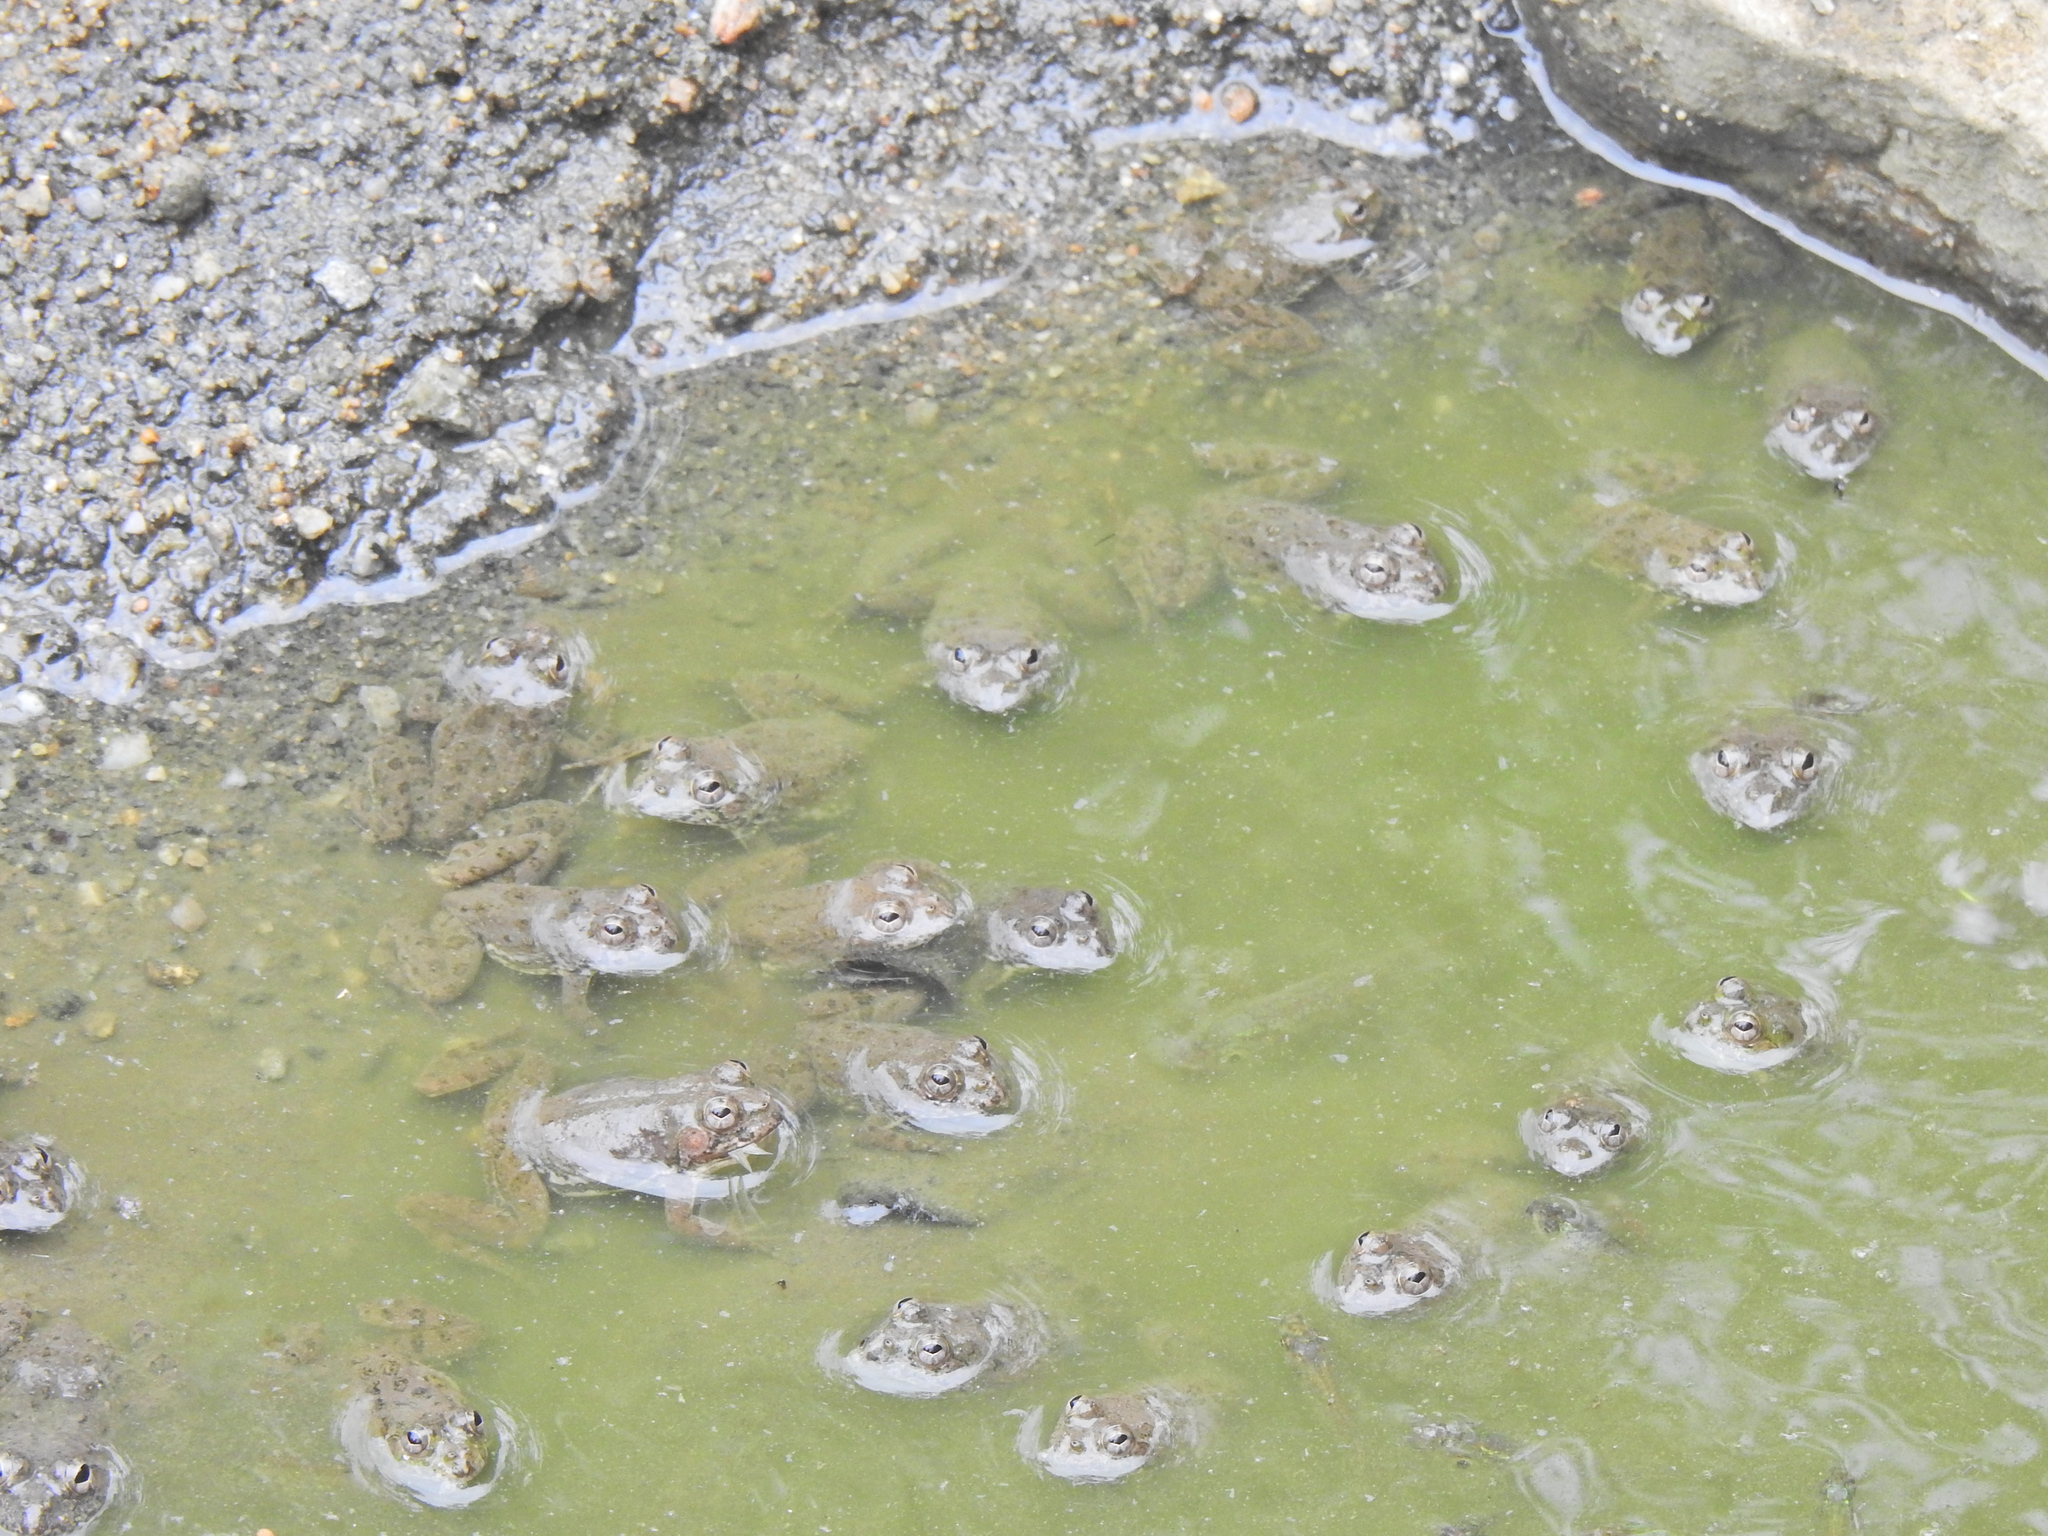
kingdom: Animalia
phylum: Chordata
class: Amphibia
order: Anura
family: Dicroglossidae
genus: Euphlyctis
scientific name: Euphlyctis cyanophlyctis
